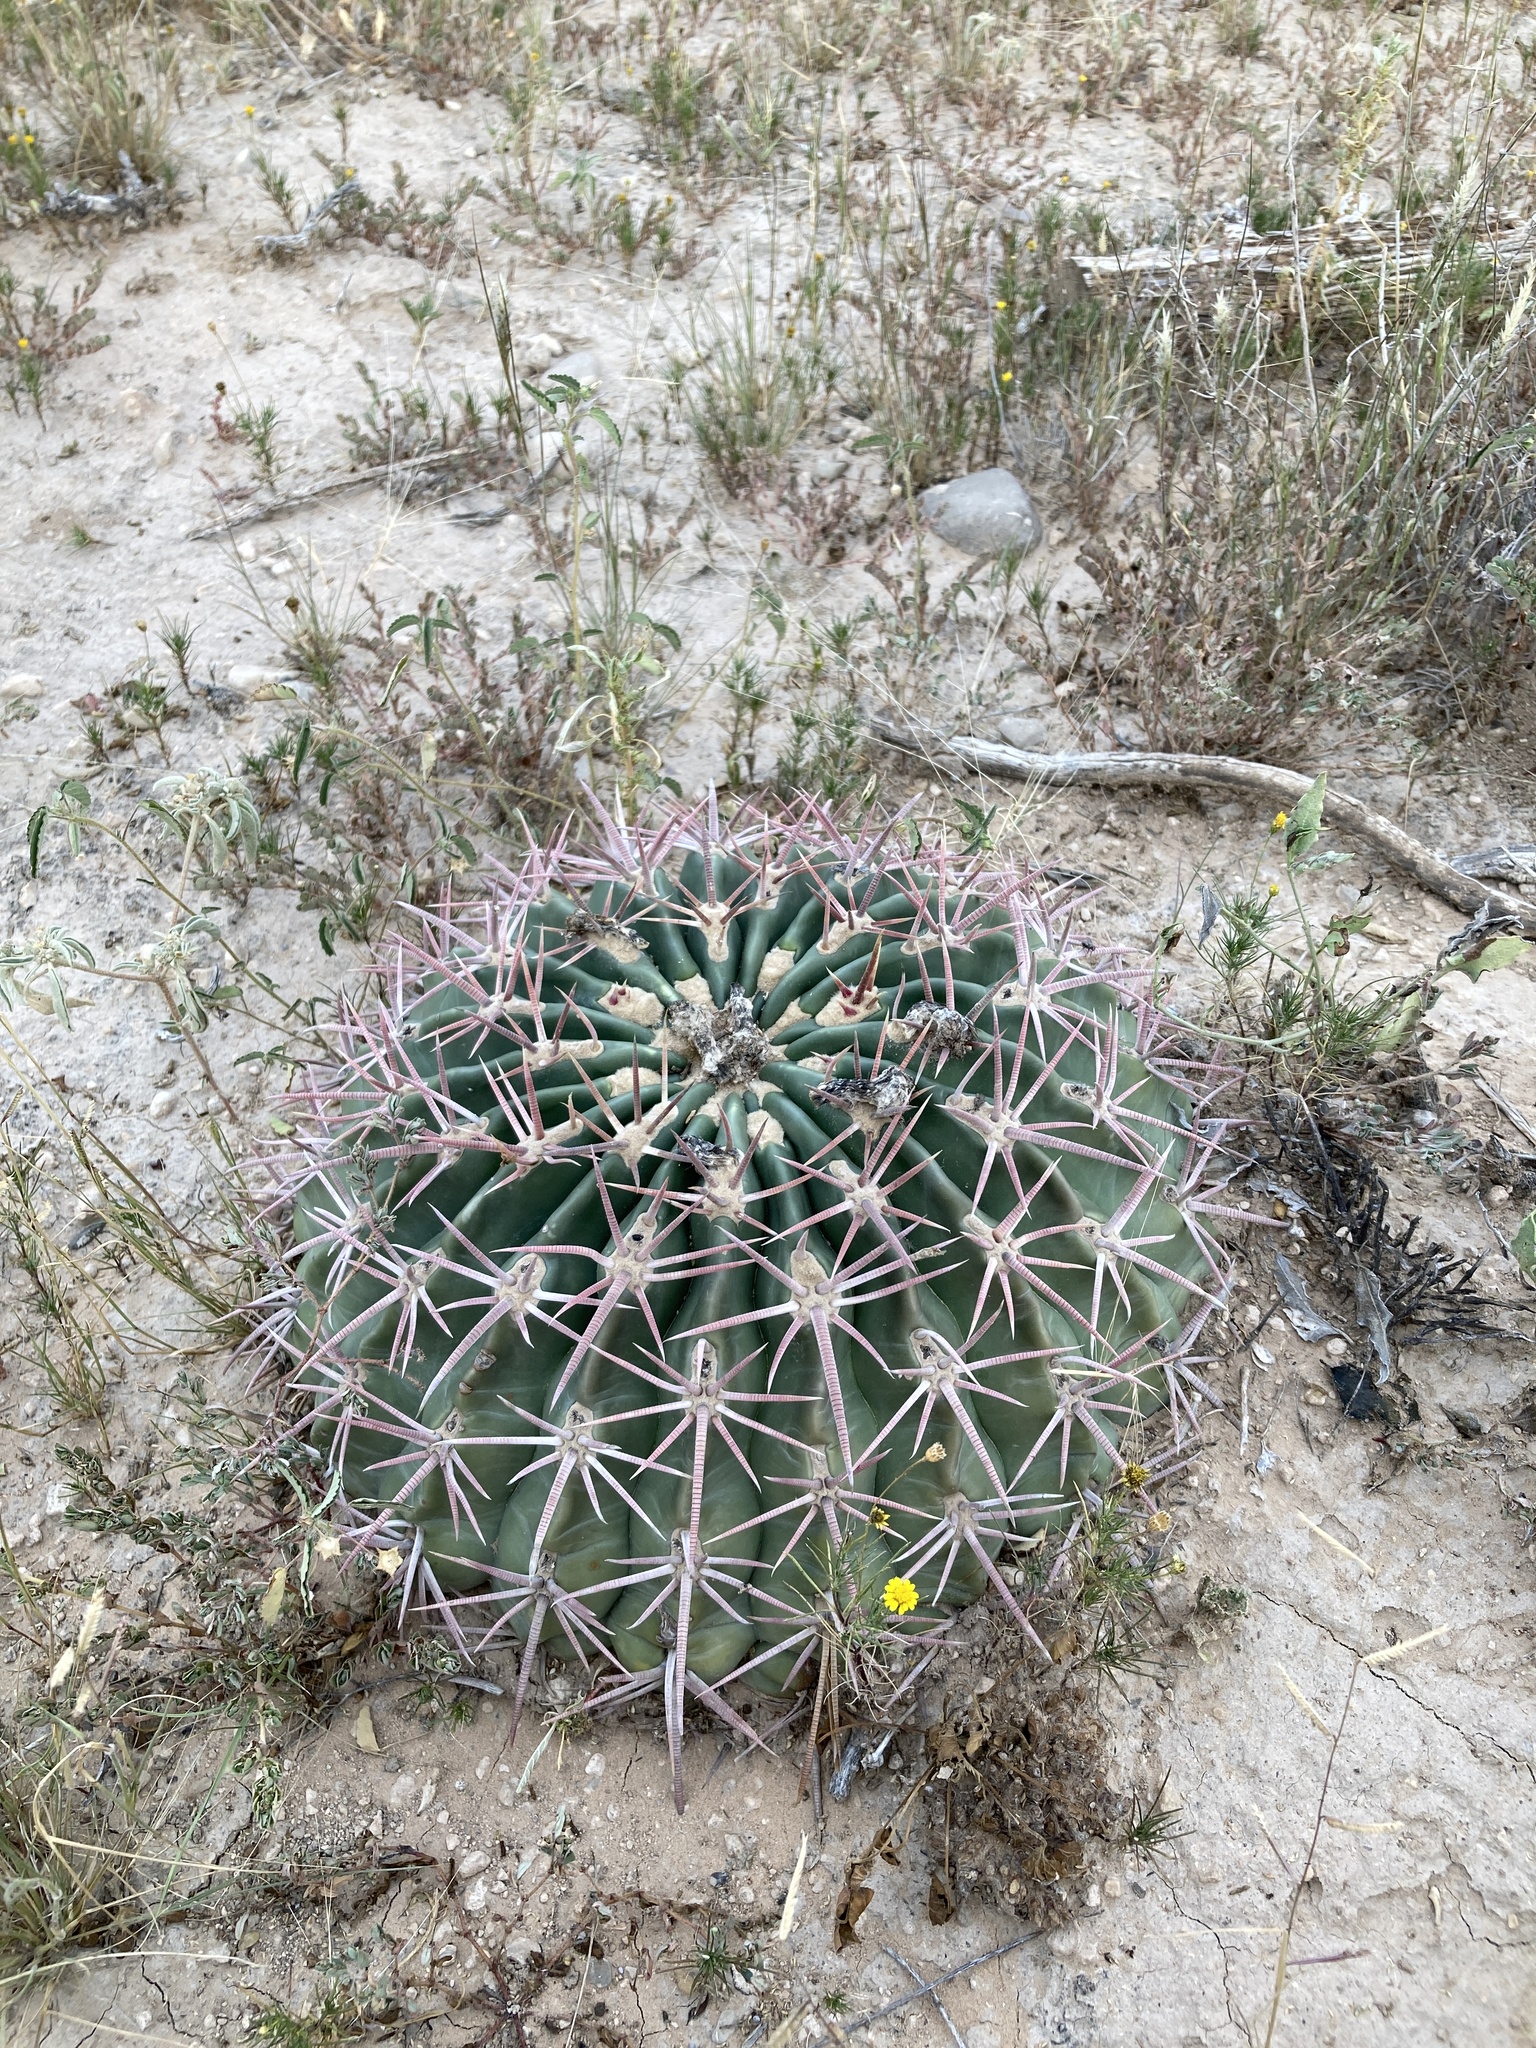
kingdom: Plantae
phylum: Tracheophyta
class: Magnoliopsida
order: Caryophyllales
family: Cactaceae
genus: Echinocactus
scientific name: Echinocactus texensis
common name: Devil's pincushion
